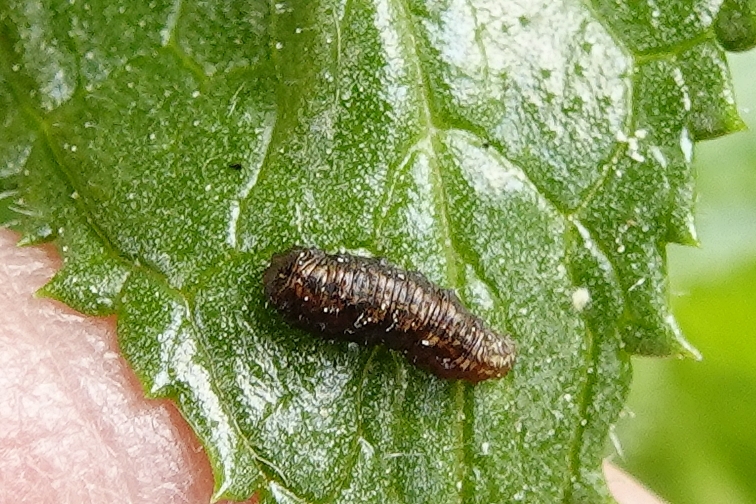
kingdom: Animalia
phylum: Arthropoda
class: Insecta
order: Diptera
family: Syrphidae
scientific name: Syrphidae
